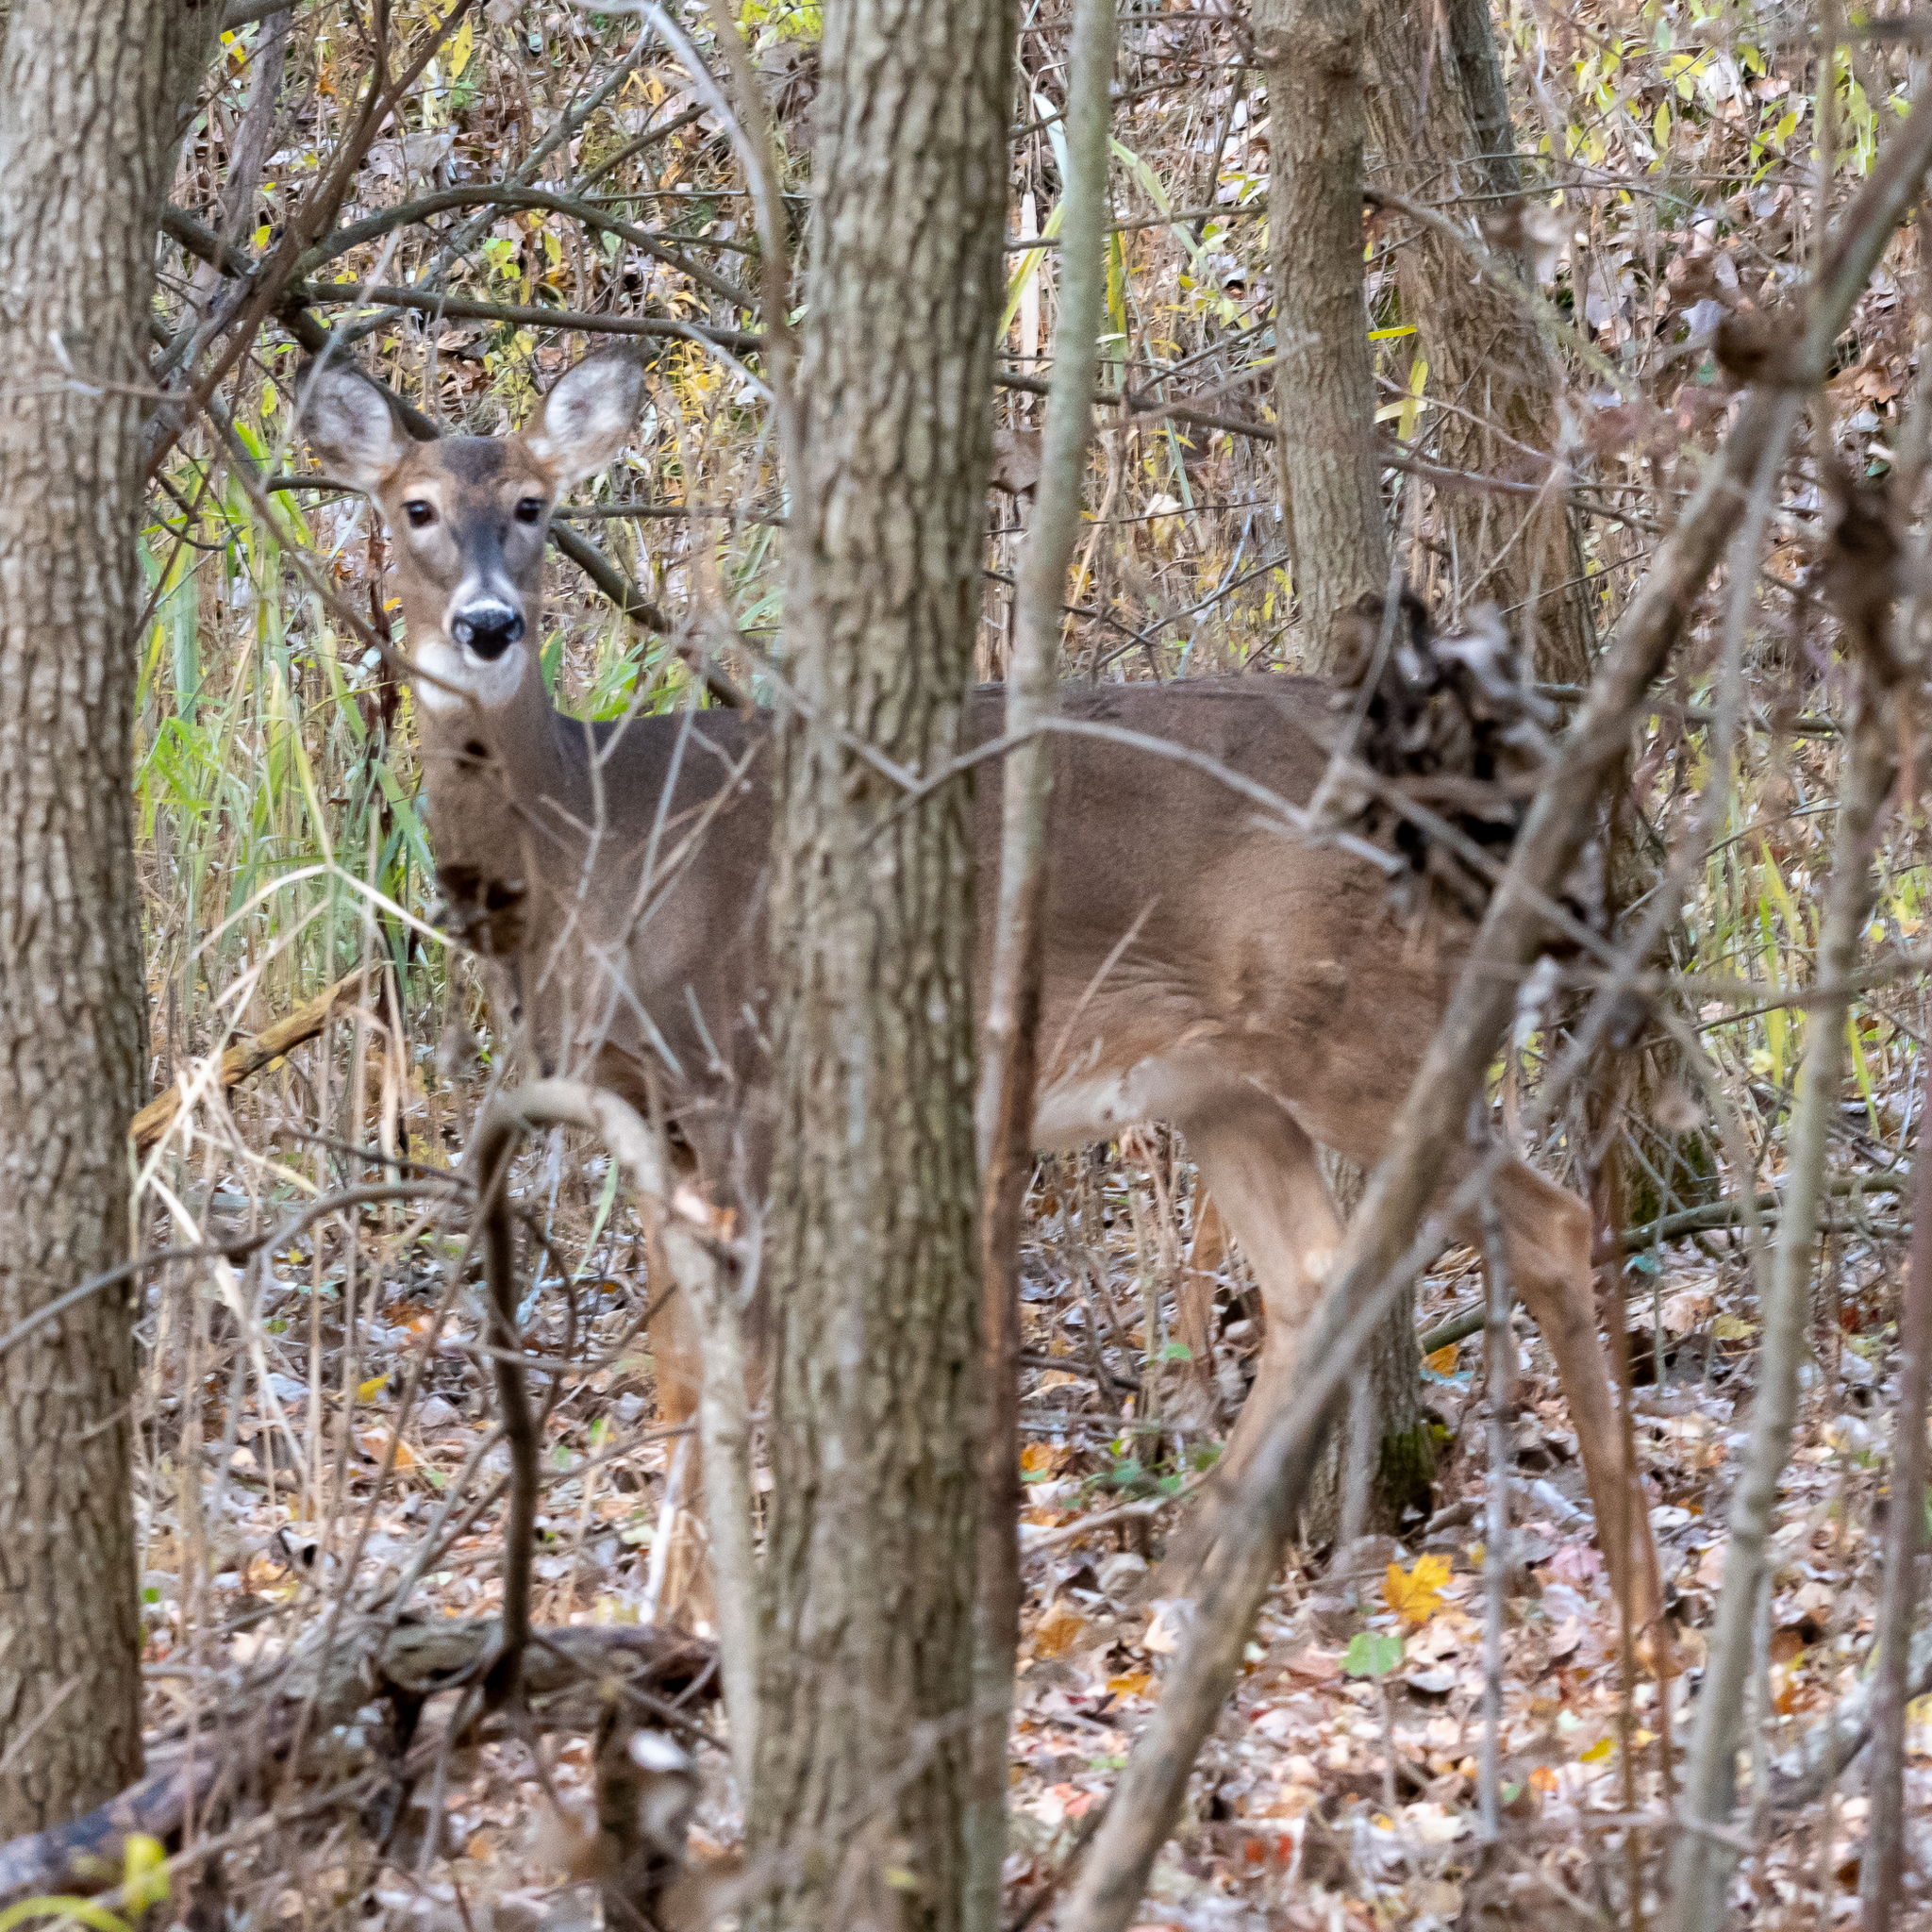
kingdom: Animalia
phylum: Chordata
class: Mammalia
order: Artiodactyla
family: Cervidae
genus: Odocoileus
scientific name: Odocoileus virginianus
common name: White-tailed deer
